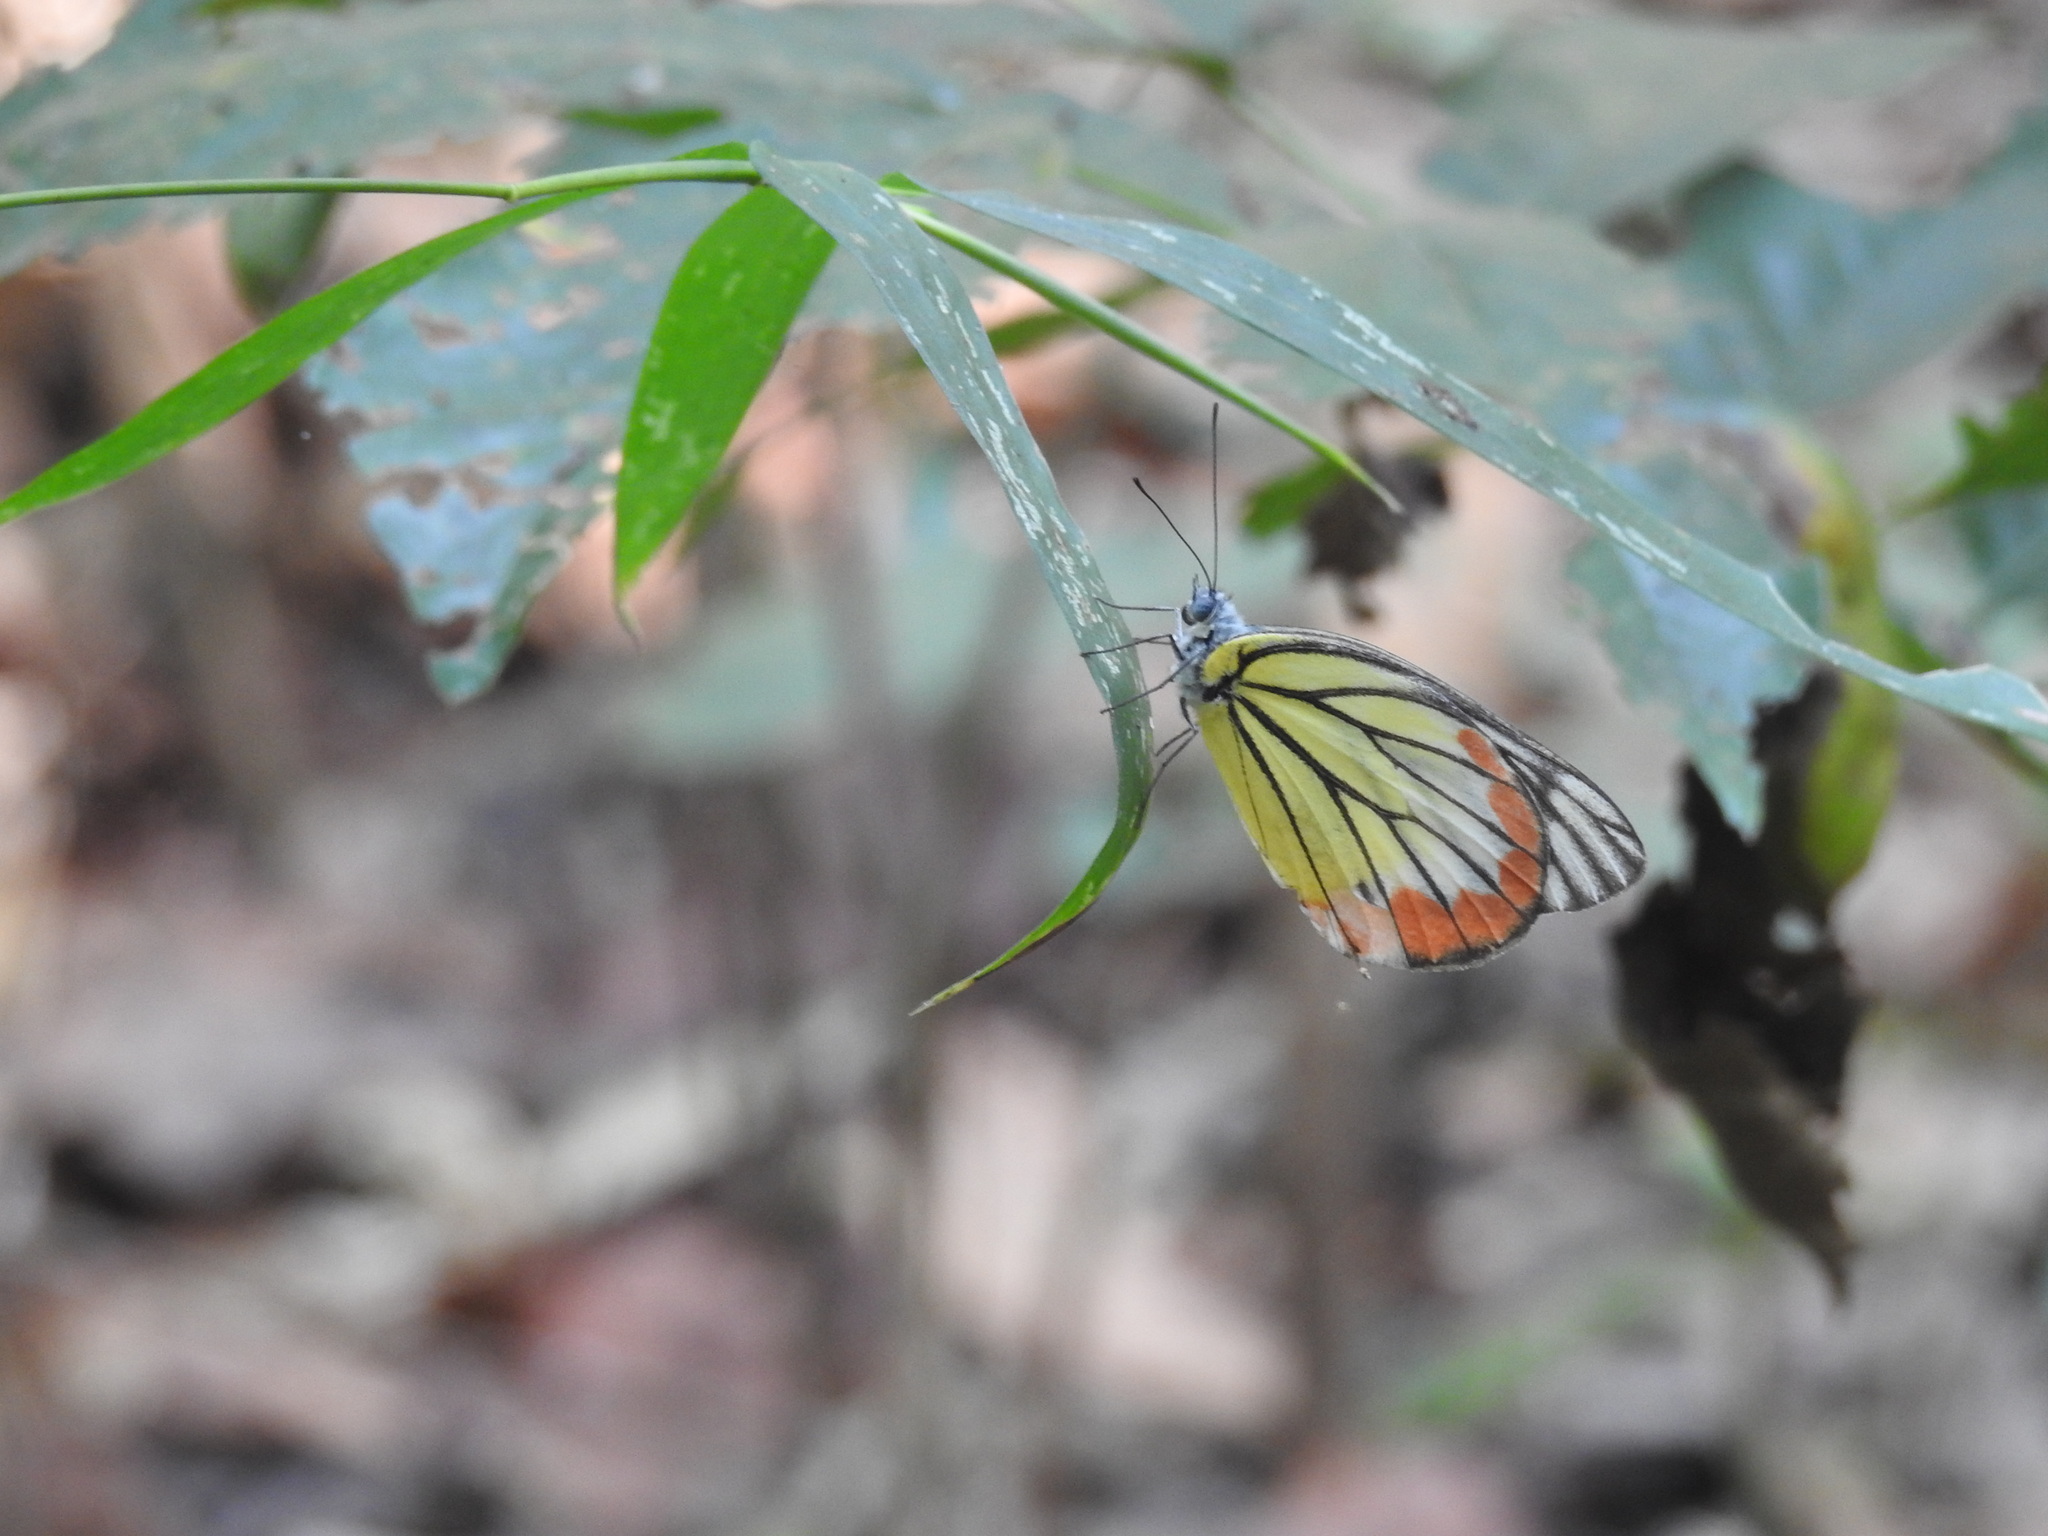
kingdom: Animalia
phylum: Arthropoda
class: Insecta
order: Lepidoptera
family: Pieridae
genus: Delias
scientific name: Delias hyparete
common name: Painted jezebel
